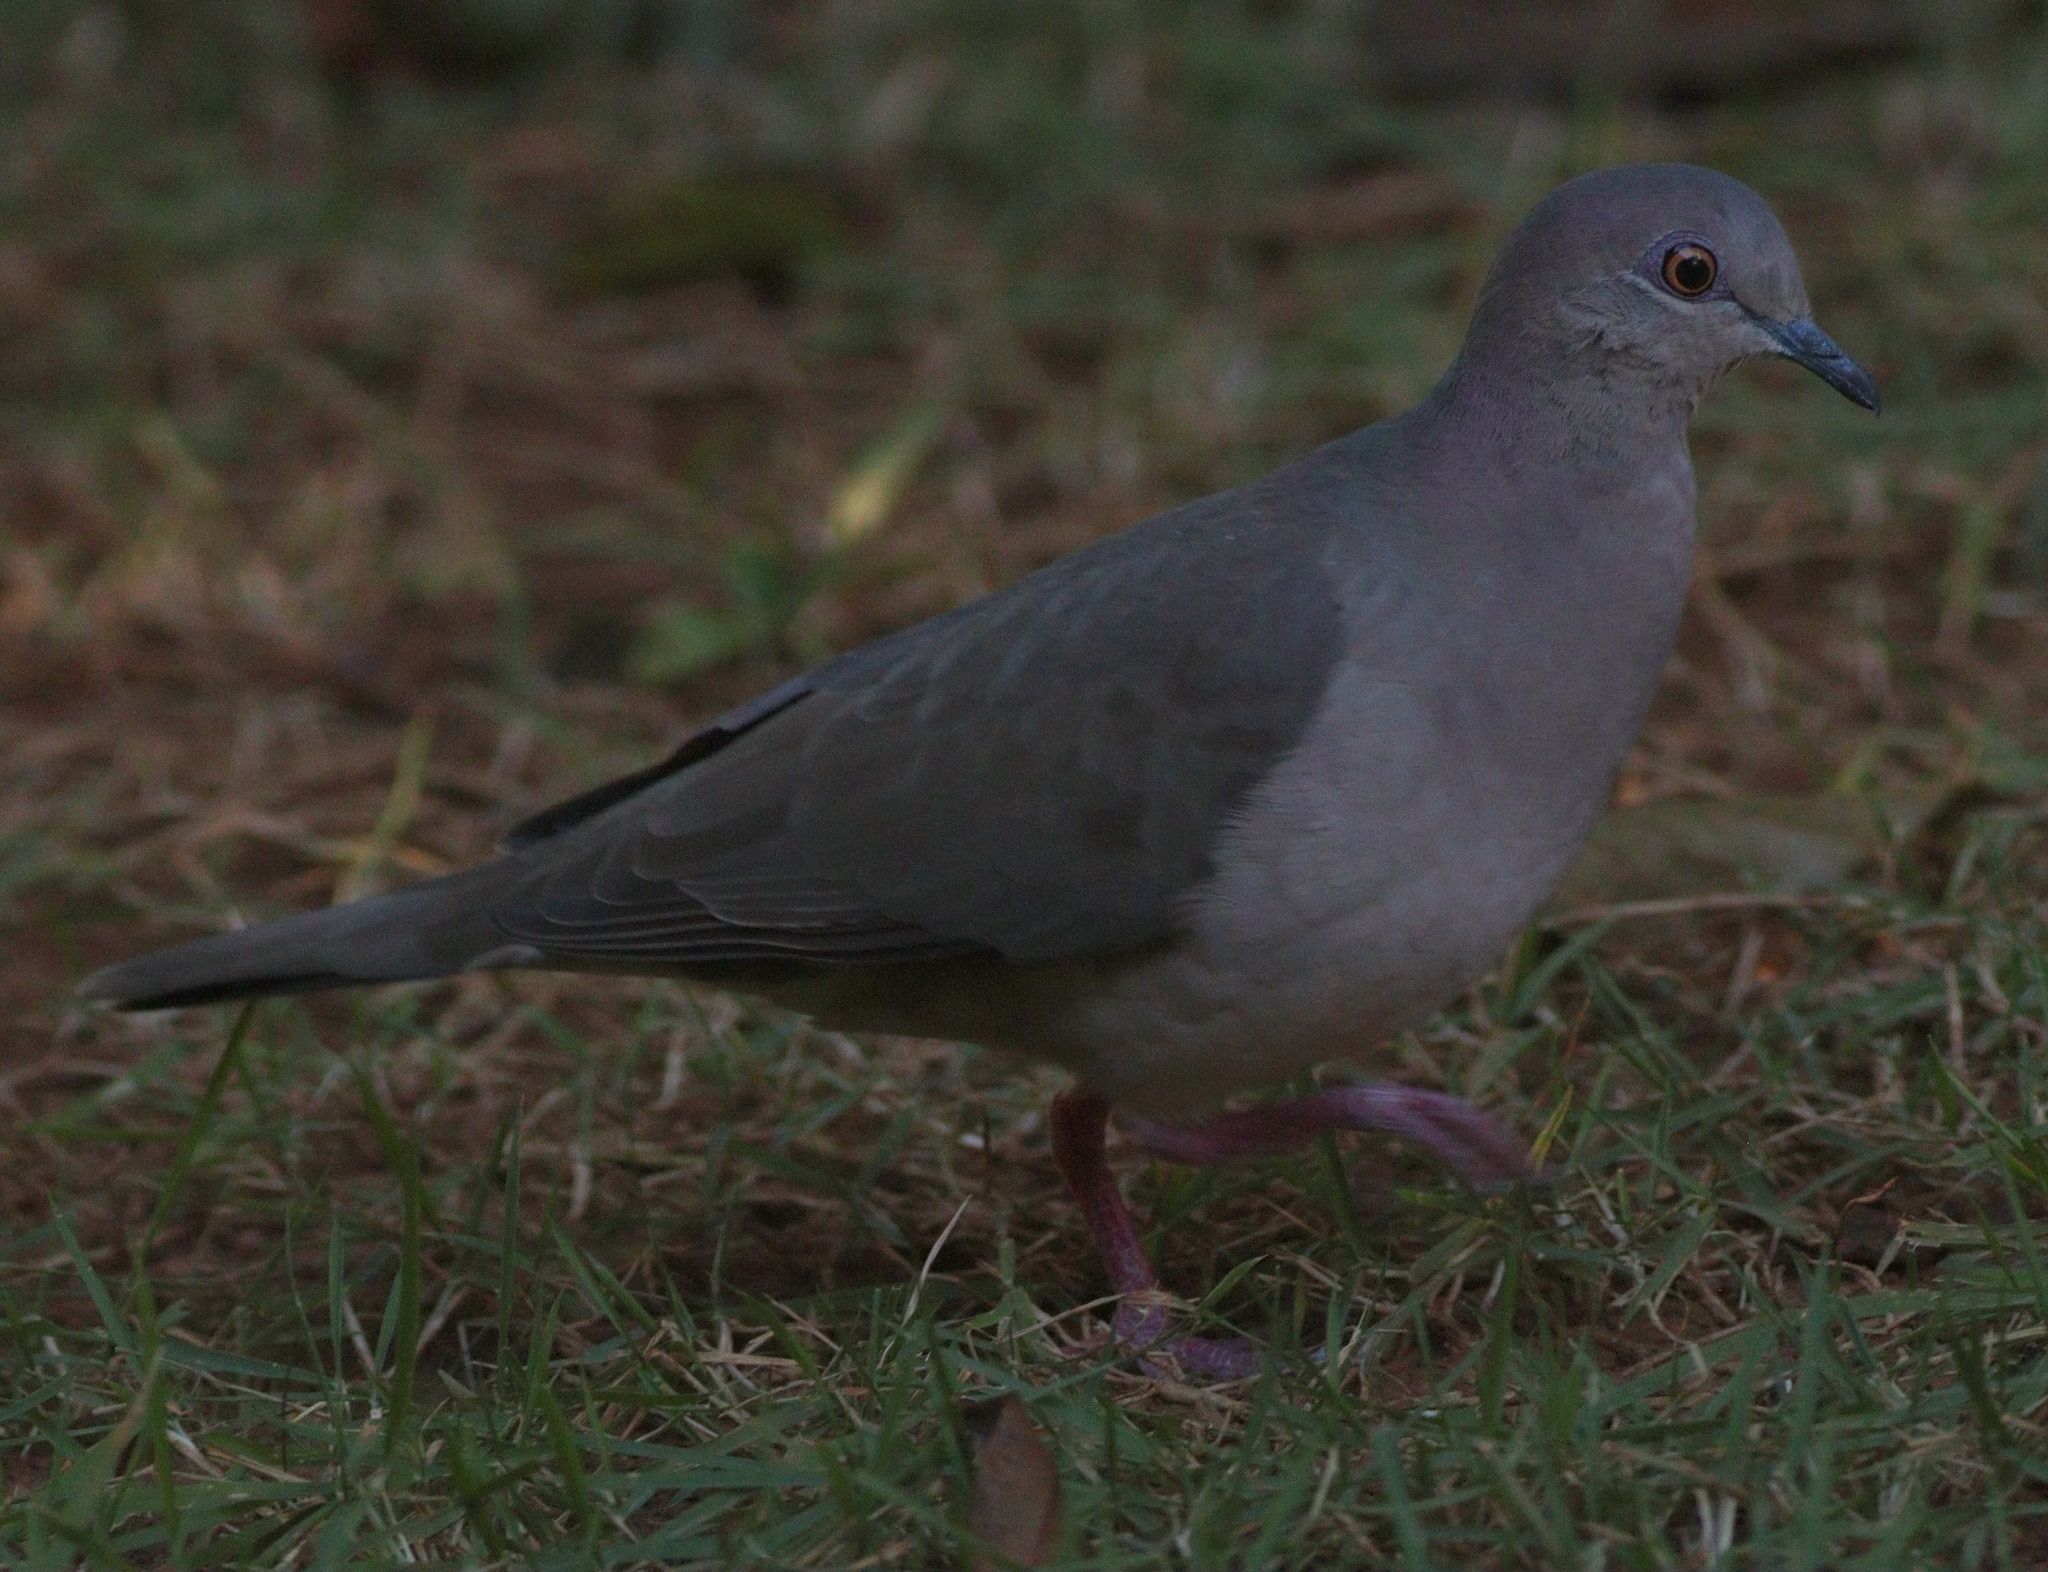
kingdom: Animalia
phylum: Chordata
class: Aves
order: Columbiformes
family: Columbidae
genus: Leptotila
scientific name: Leptotila verreauxi
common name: White-tipped dove
